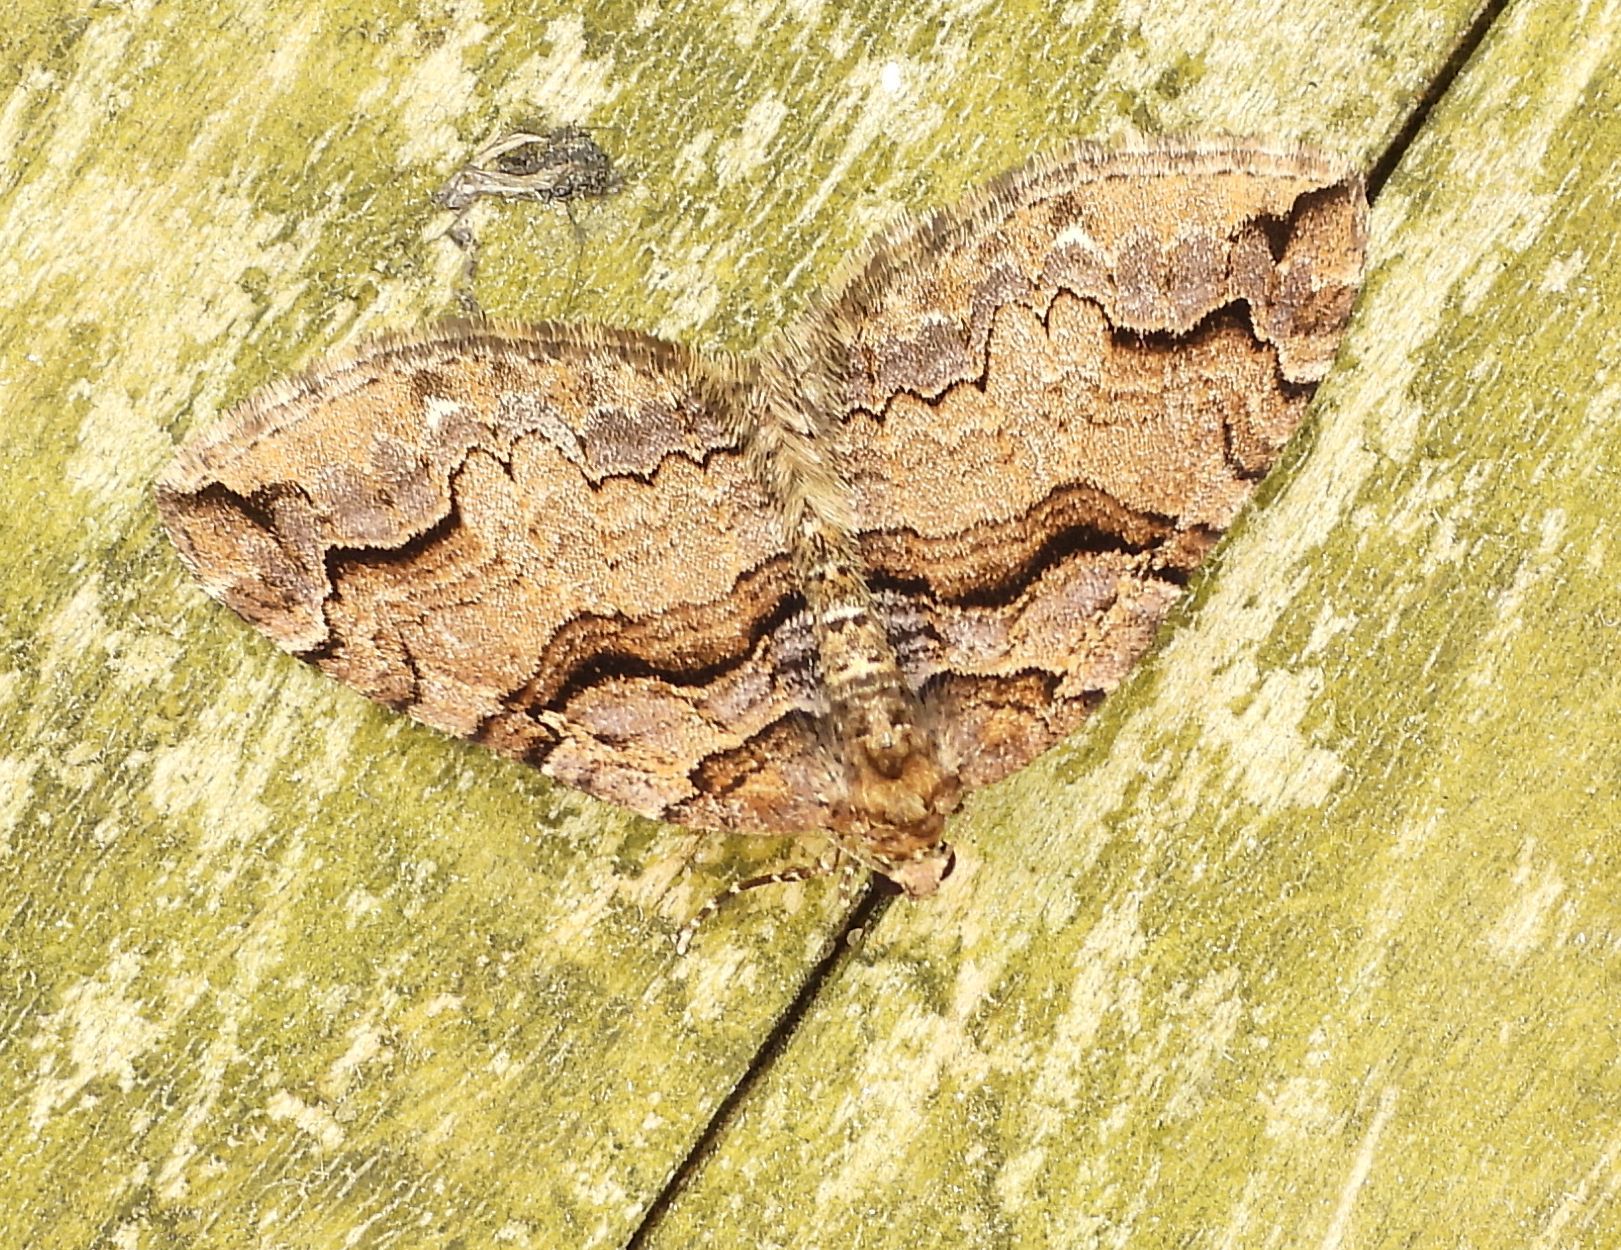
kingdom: Animalia
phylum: Arthropoda
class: Insecta
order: Lepidoptera
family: Geometridae
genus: Anticlea
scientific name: Anticlea vasiliata
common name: Variable carpet
